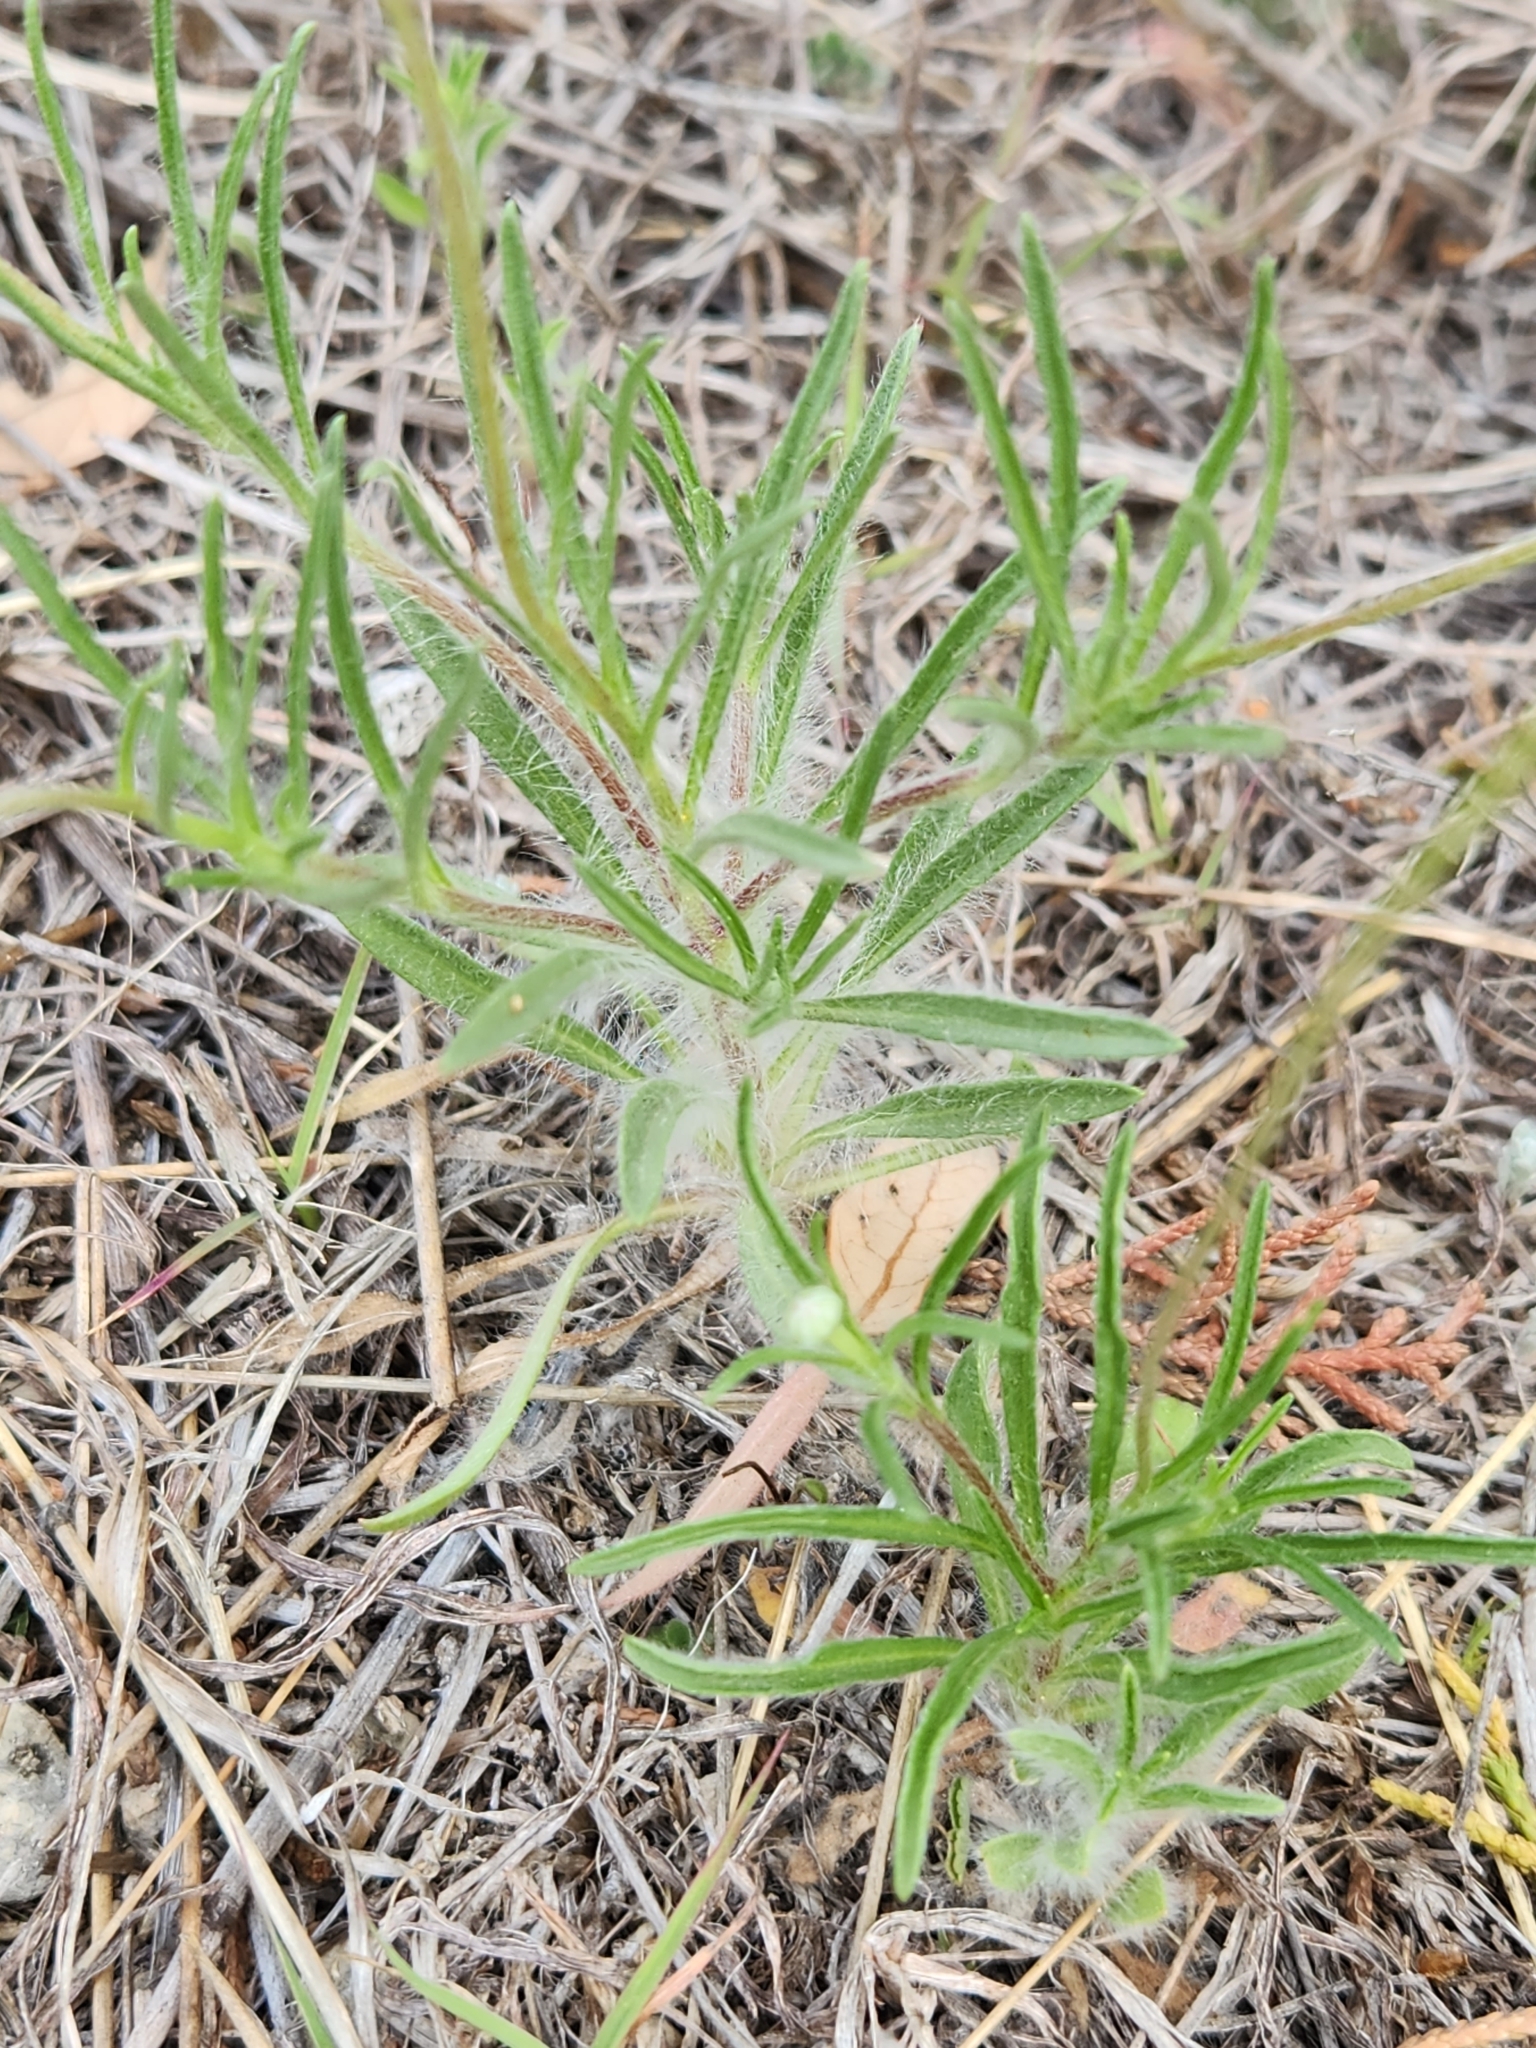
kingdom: Plantae
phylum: Tracheophyta
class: Magnoliopsida
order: Asterales
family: Asteraceae
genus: Tetraneuris
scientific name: Tetraneuris linearifolia
